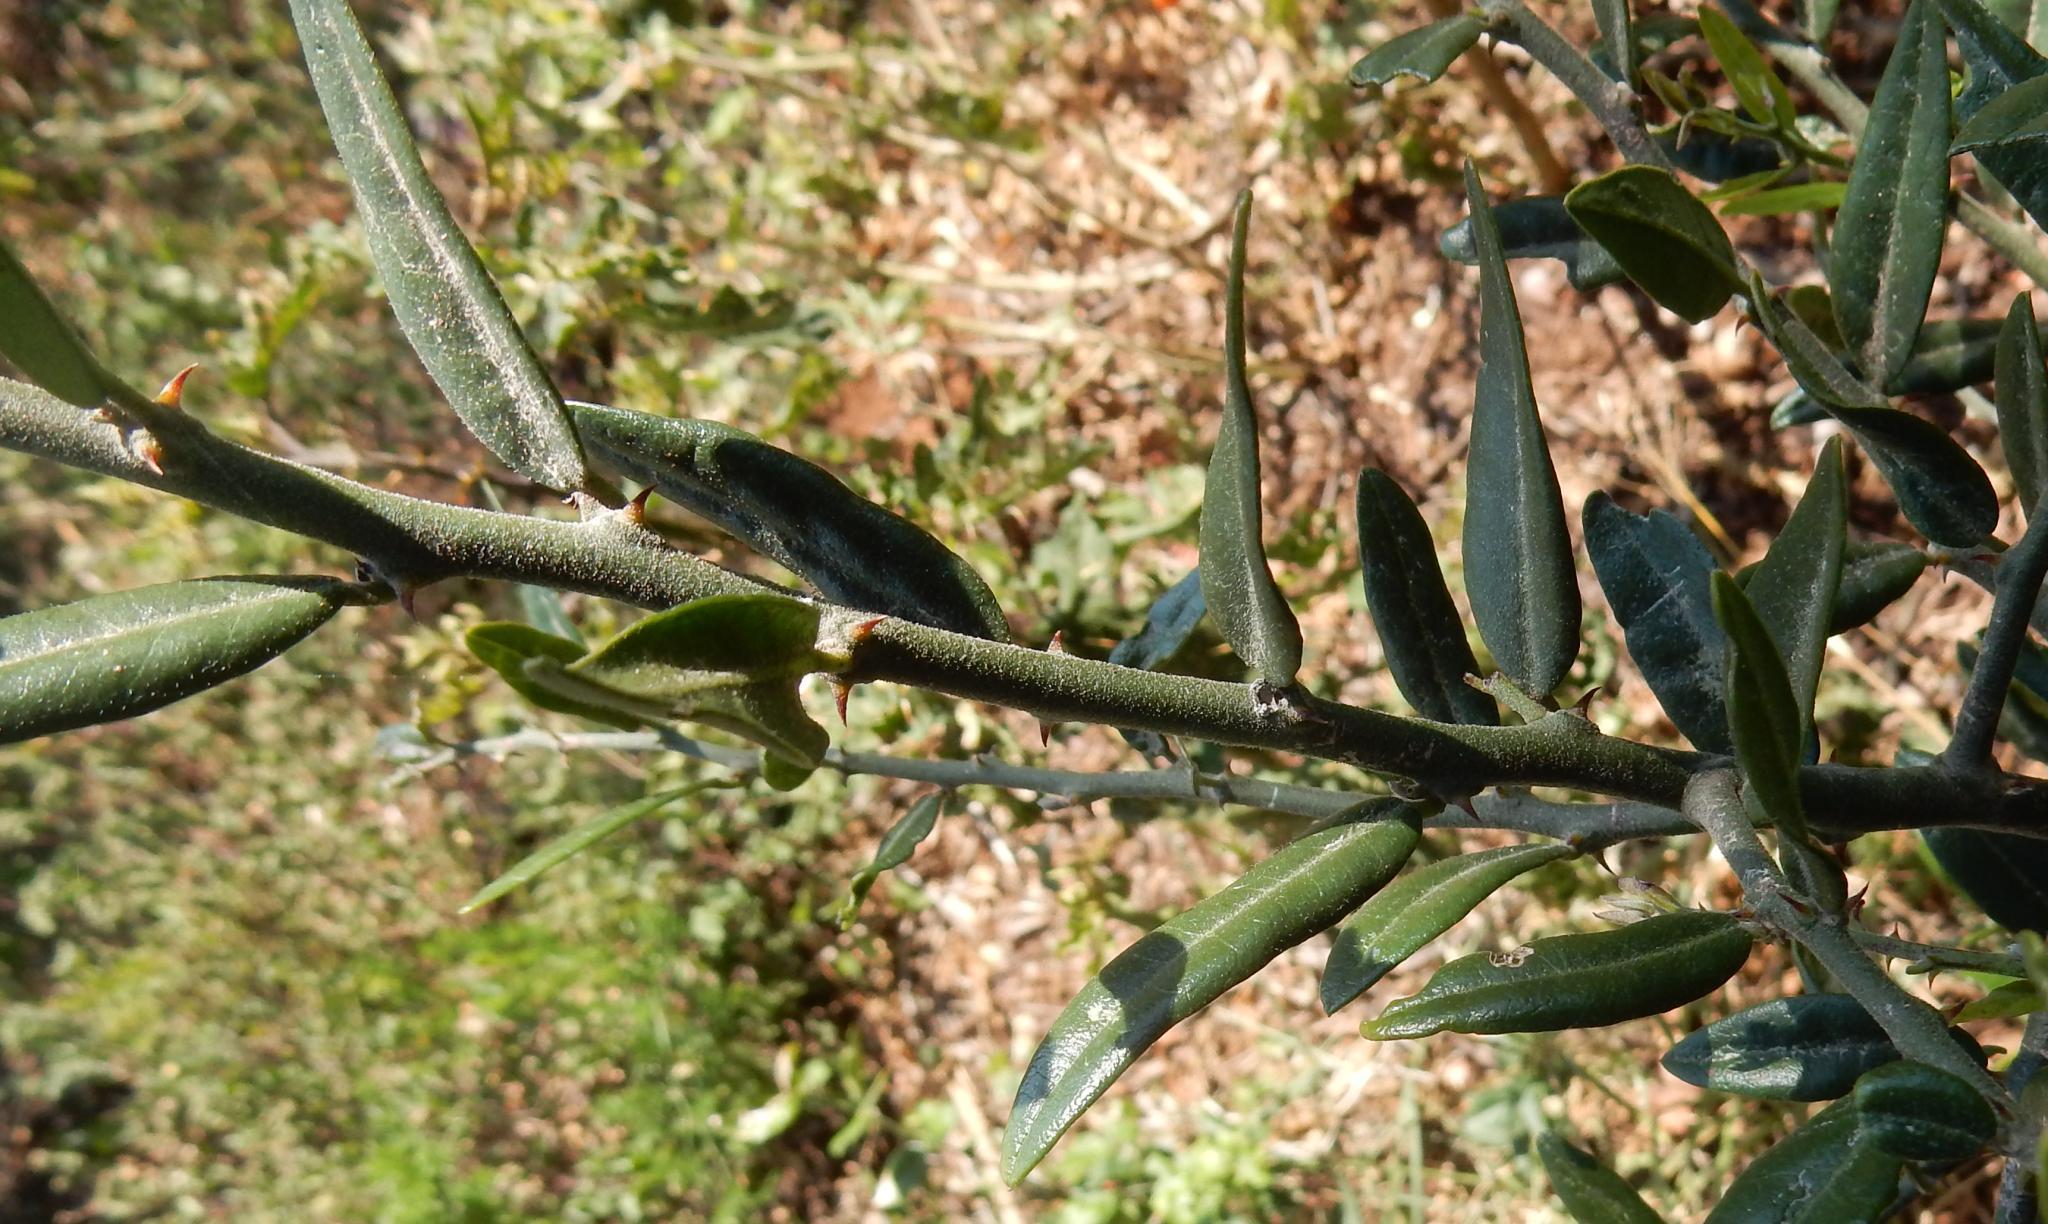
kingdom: Plantae
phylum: Tracheophyta
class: Magnoliopsida
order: Rosales
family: Rhamnaceae
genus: Scutia
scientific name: Scutia myrtina
